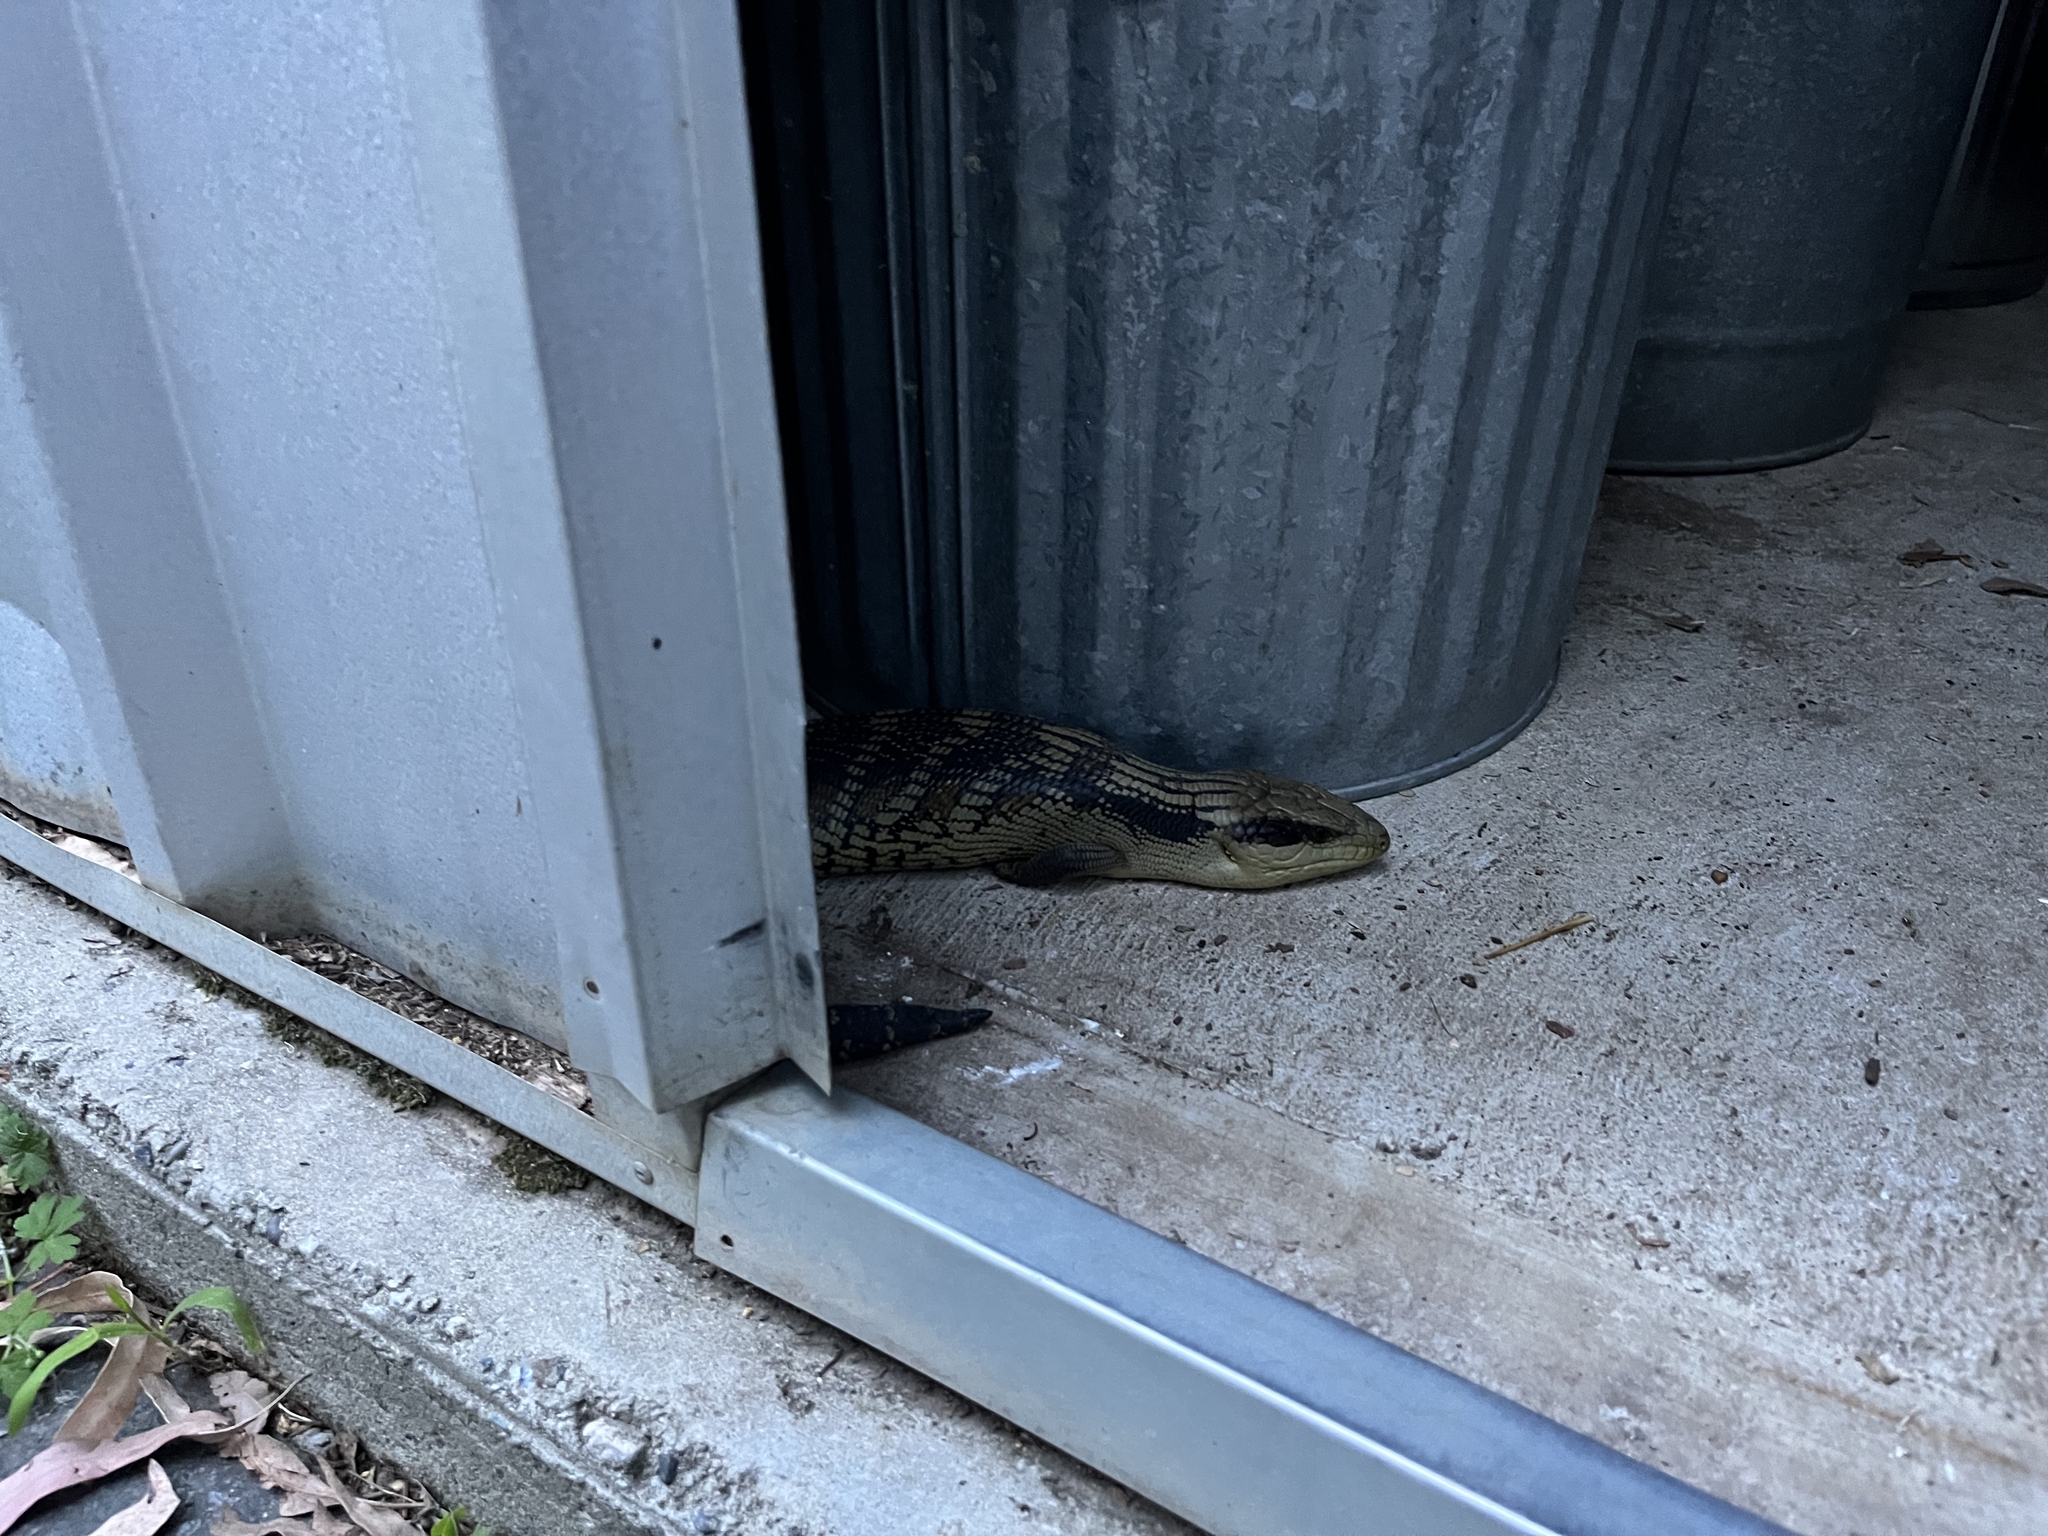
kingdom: Animalia
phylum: Chordata
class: Squamata
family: Scincidae
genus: Tiliqua
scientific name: Tiliqua scincoides
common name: Common bluetongue
